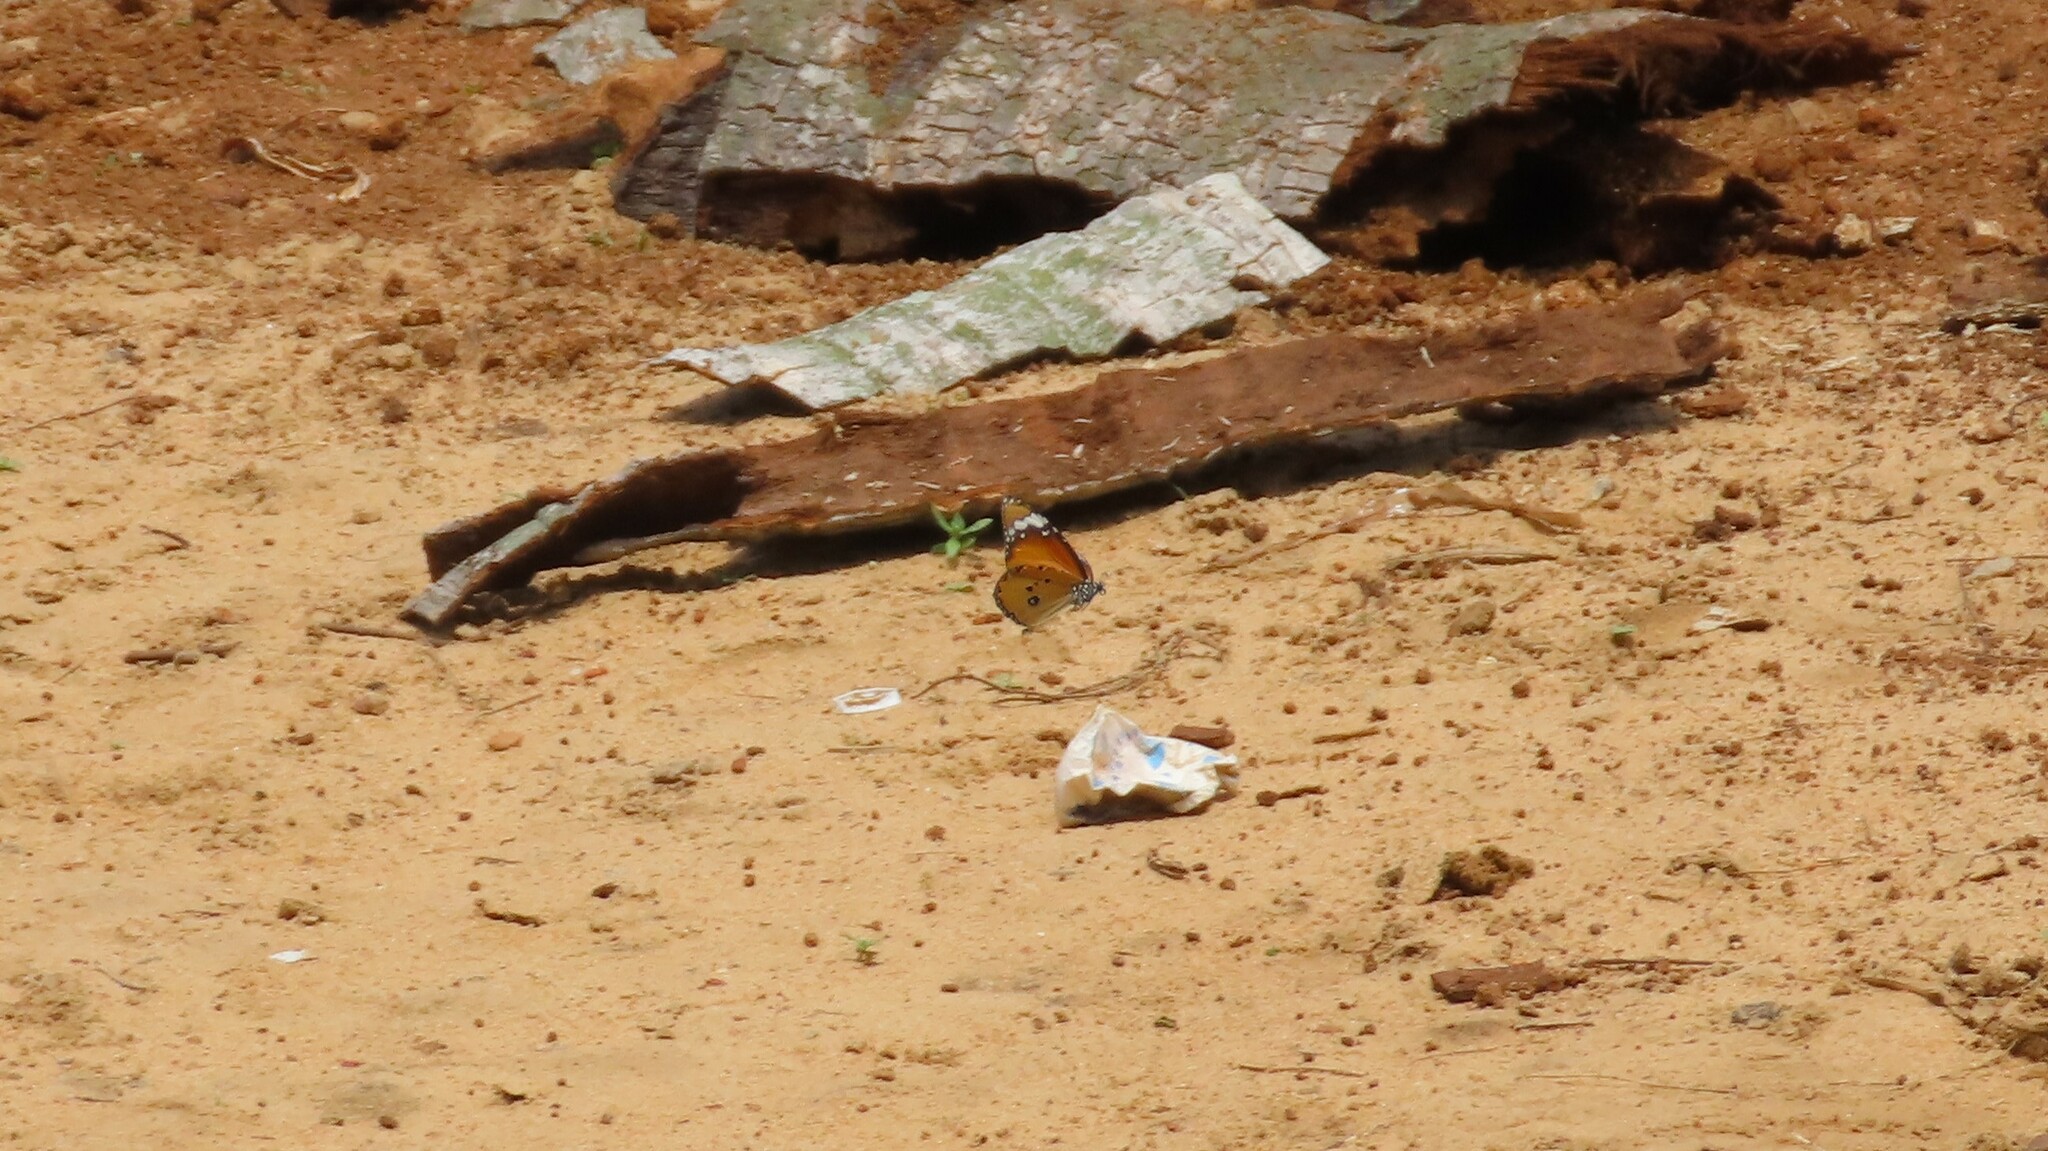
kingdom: Animalia
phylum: Arthropoda
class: Insecta
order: Lepidoptera
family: Nymphalidae
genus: Danaus
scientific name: Danaus chrysippus
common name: Plain tiger
